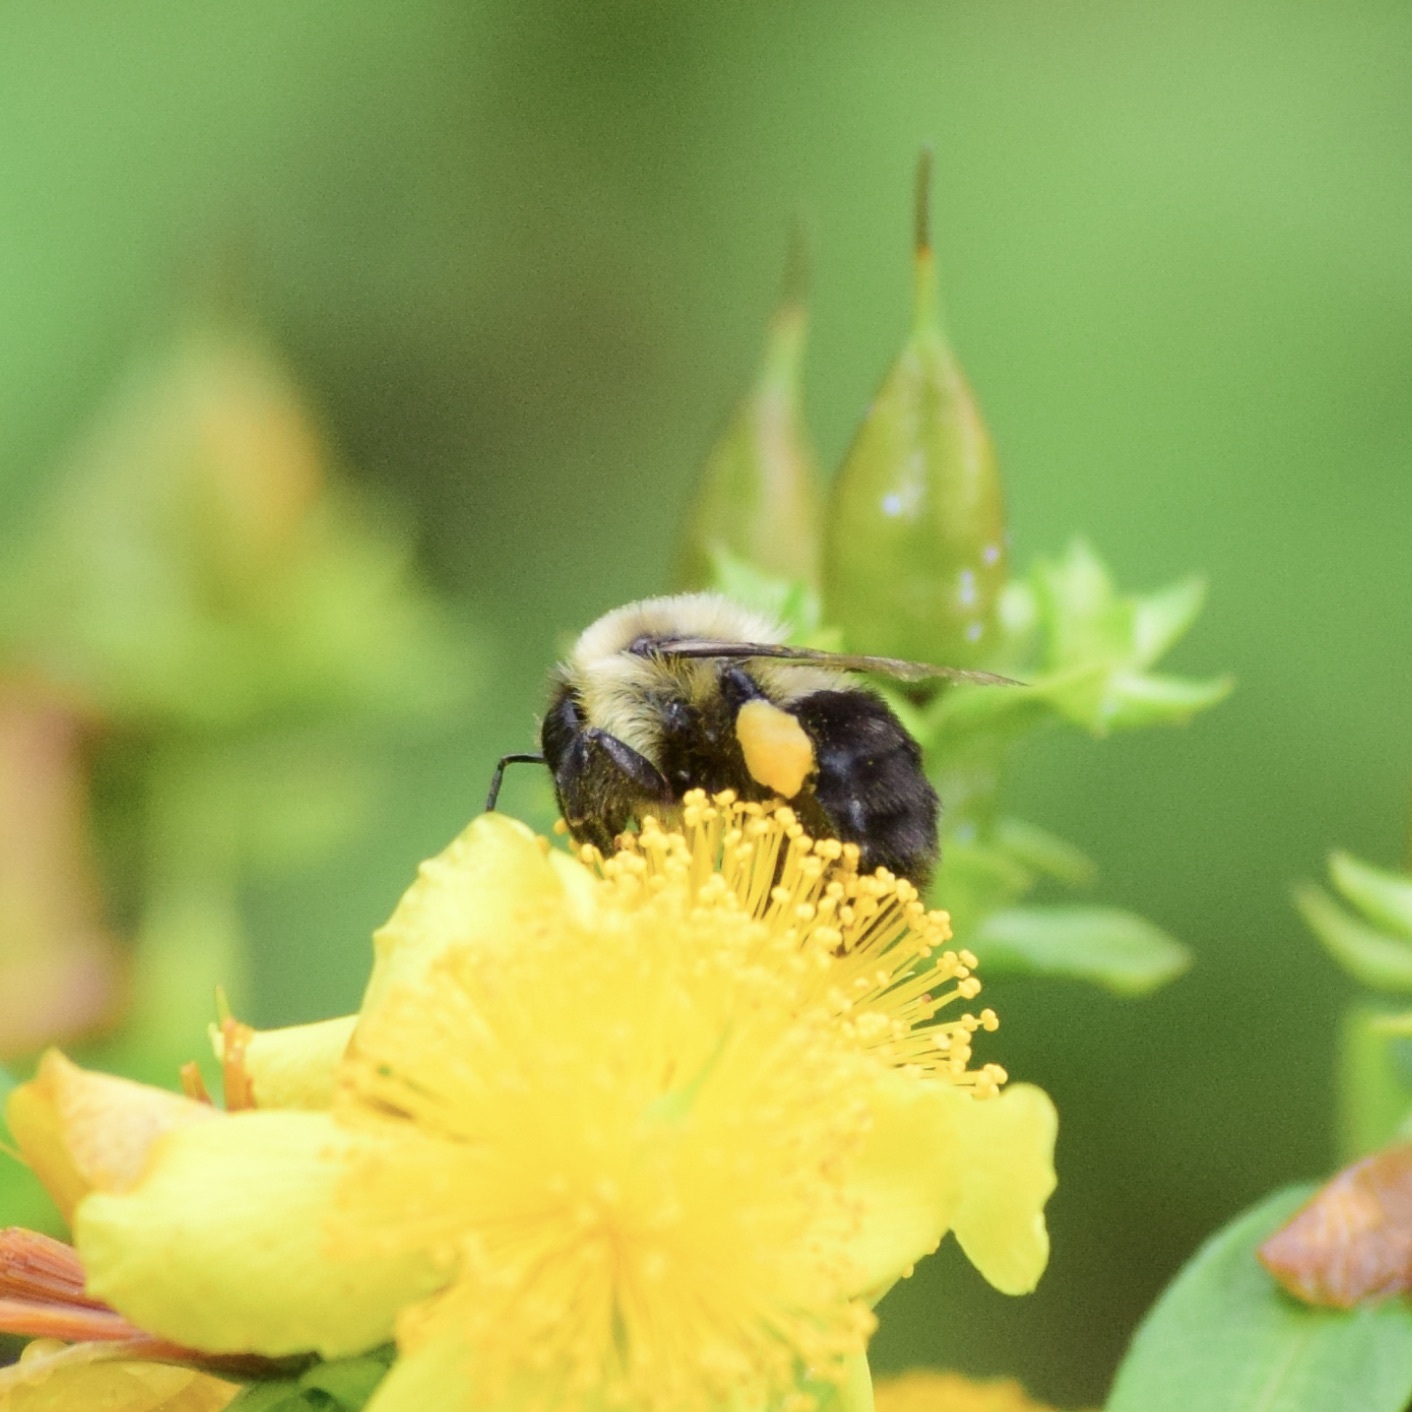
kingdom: Animalia
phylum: Arthropoda
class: Insecta
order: Hymenoptera
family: Apidae
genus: Bombus
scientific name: Bombus impatiens
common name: Common eastern bumble bee
